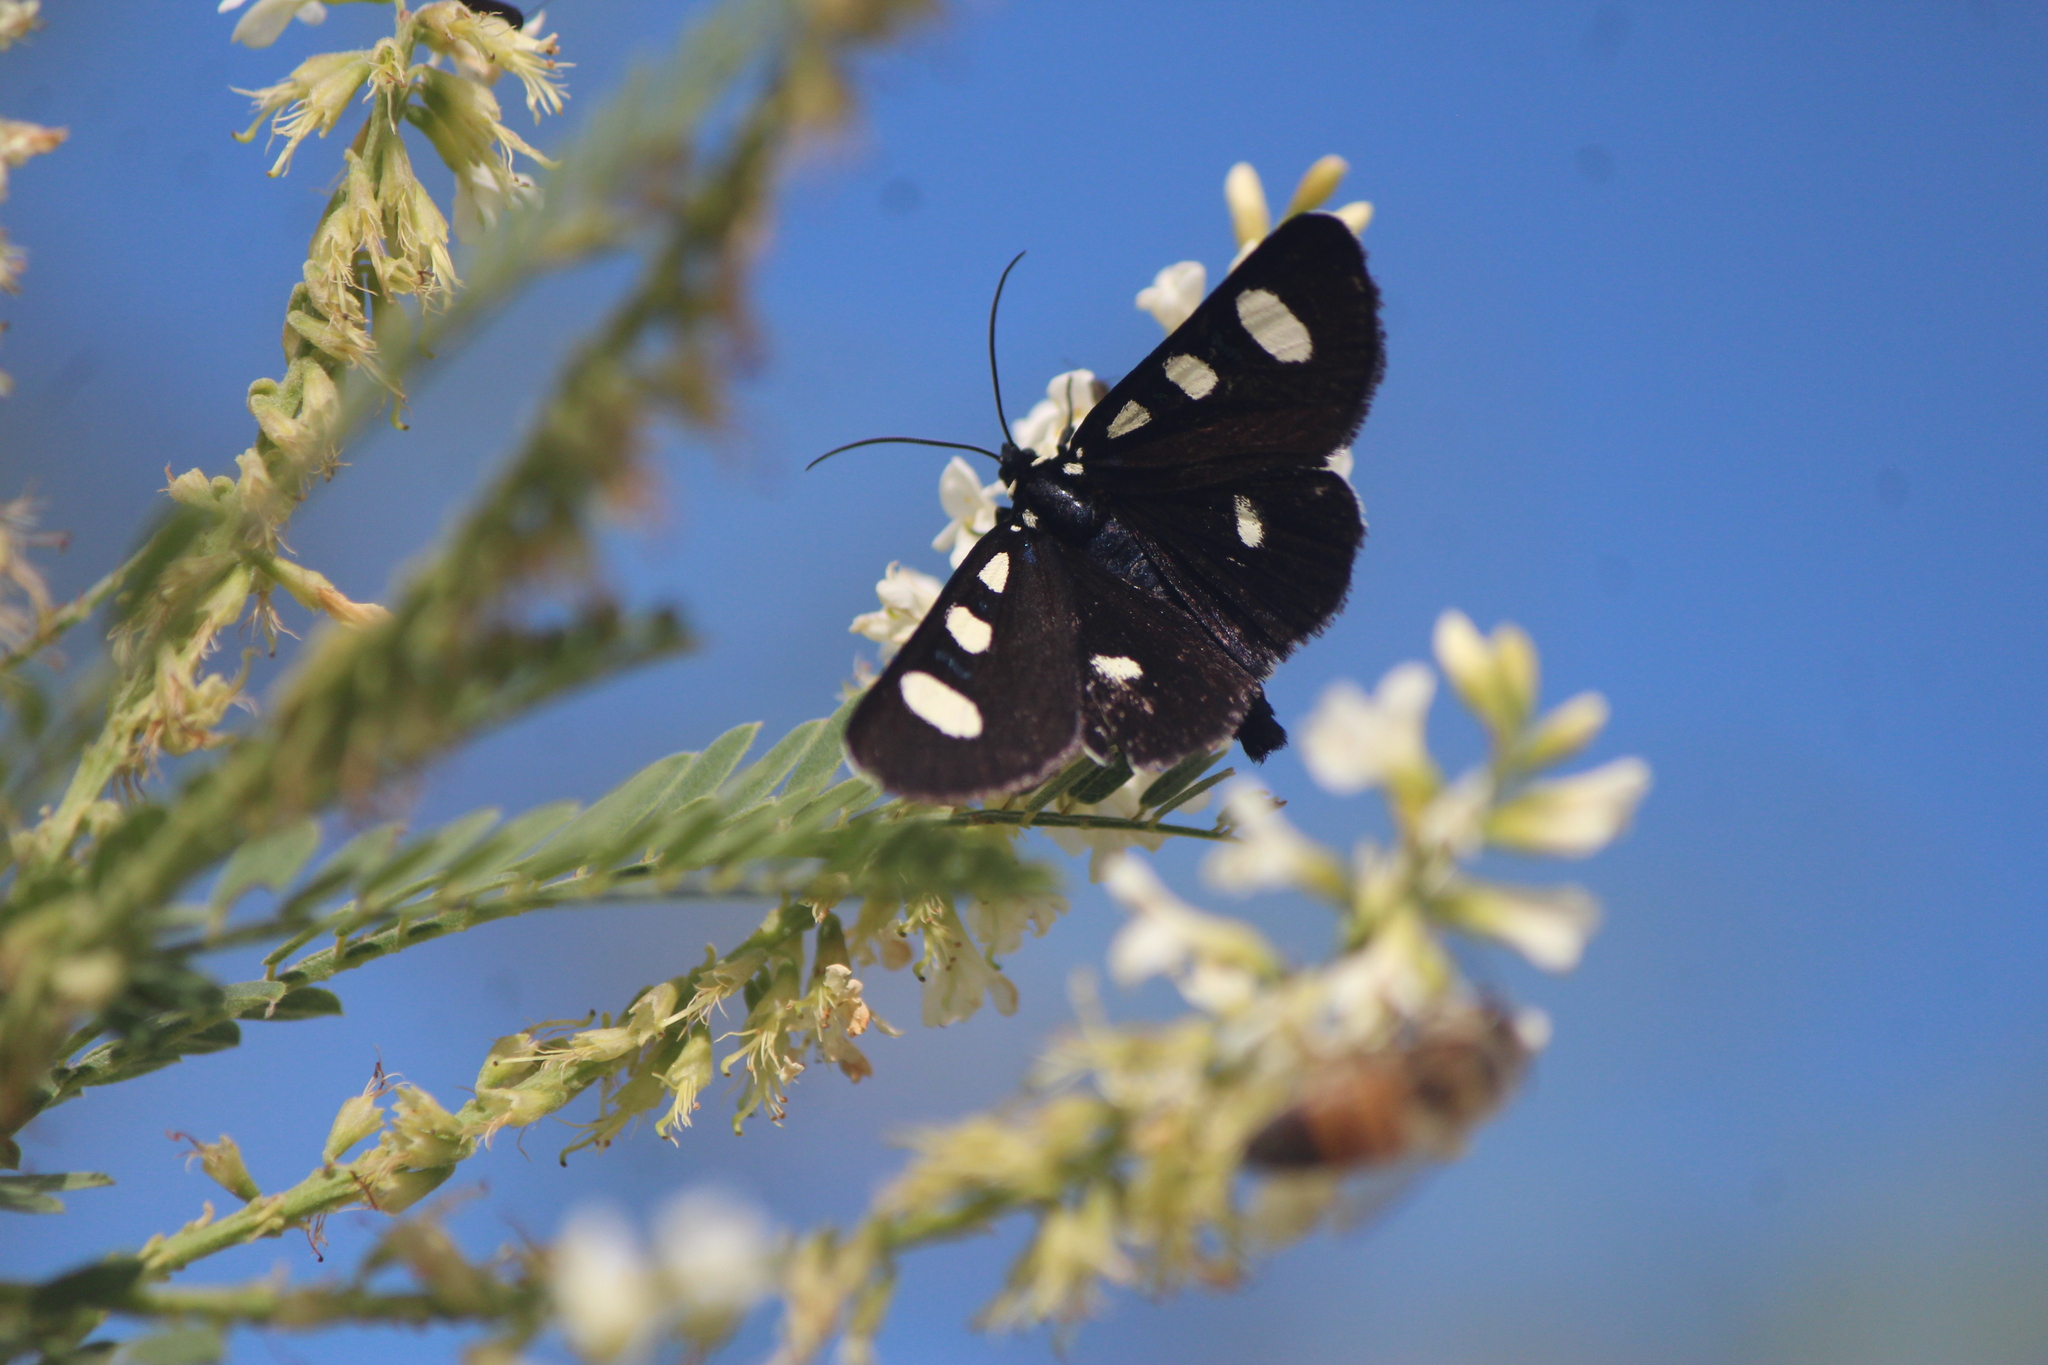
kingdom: Animalia
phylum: Arthropoda
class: Insecta
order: Lepidoptera
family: Noctuidae
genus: Alypiodes
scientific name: Alypiodes bimaculata
